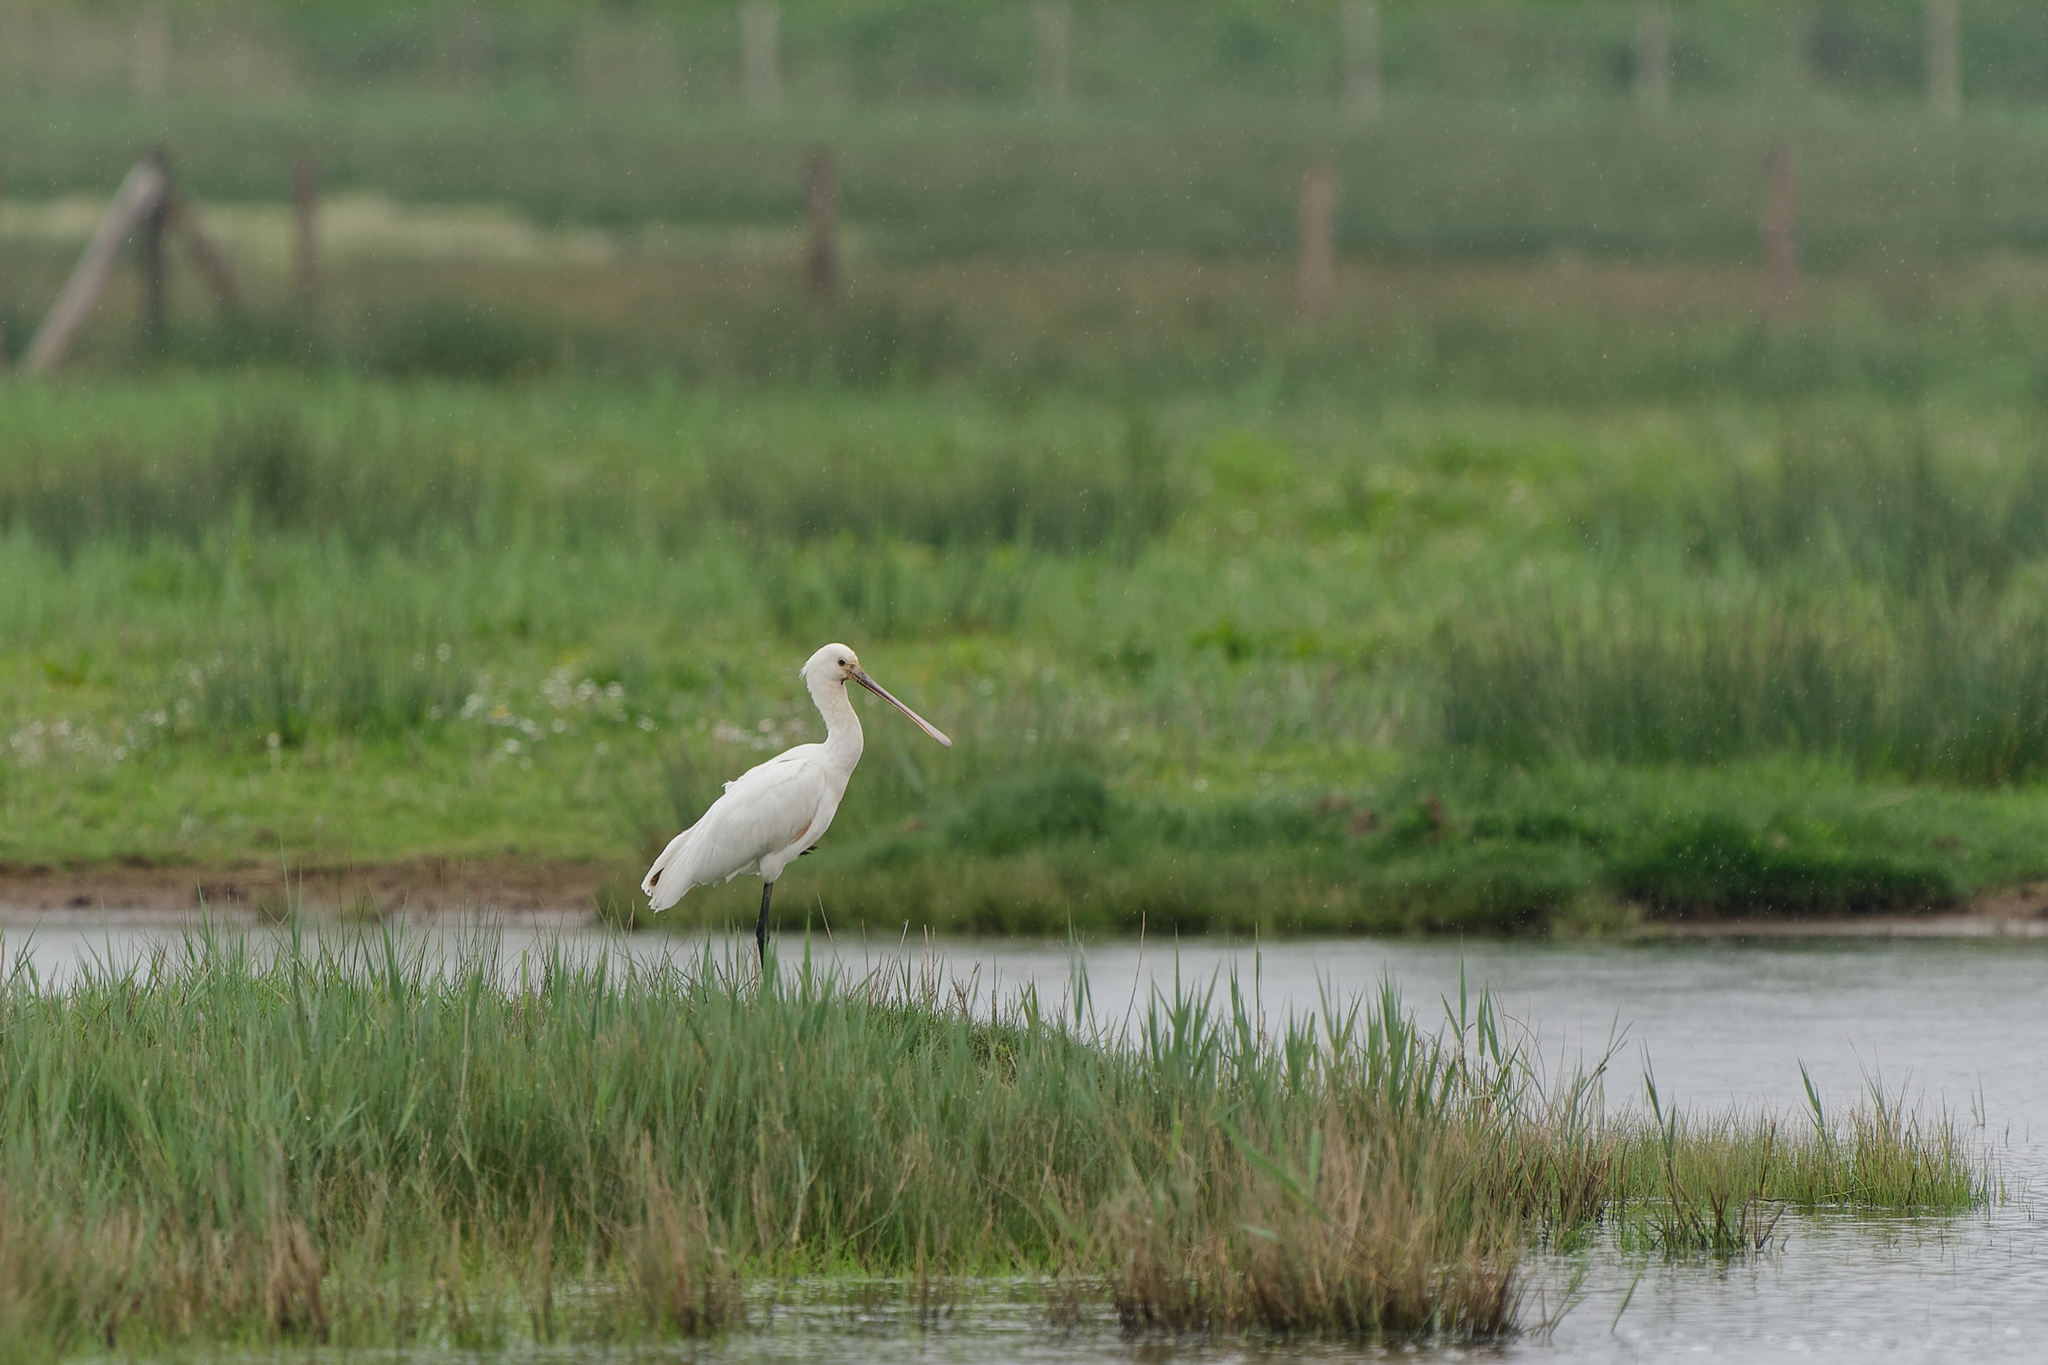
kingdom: Animalia
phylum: Chordata
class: Aves
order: Pelecaniformes
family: Threskiornithidae
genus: Platalea
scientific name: Platalea leucorodia
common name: Eurasian spoonbill
